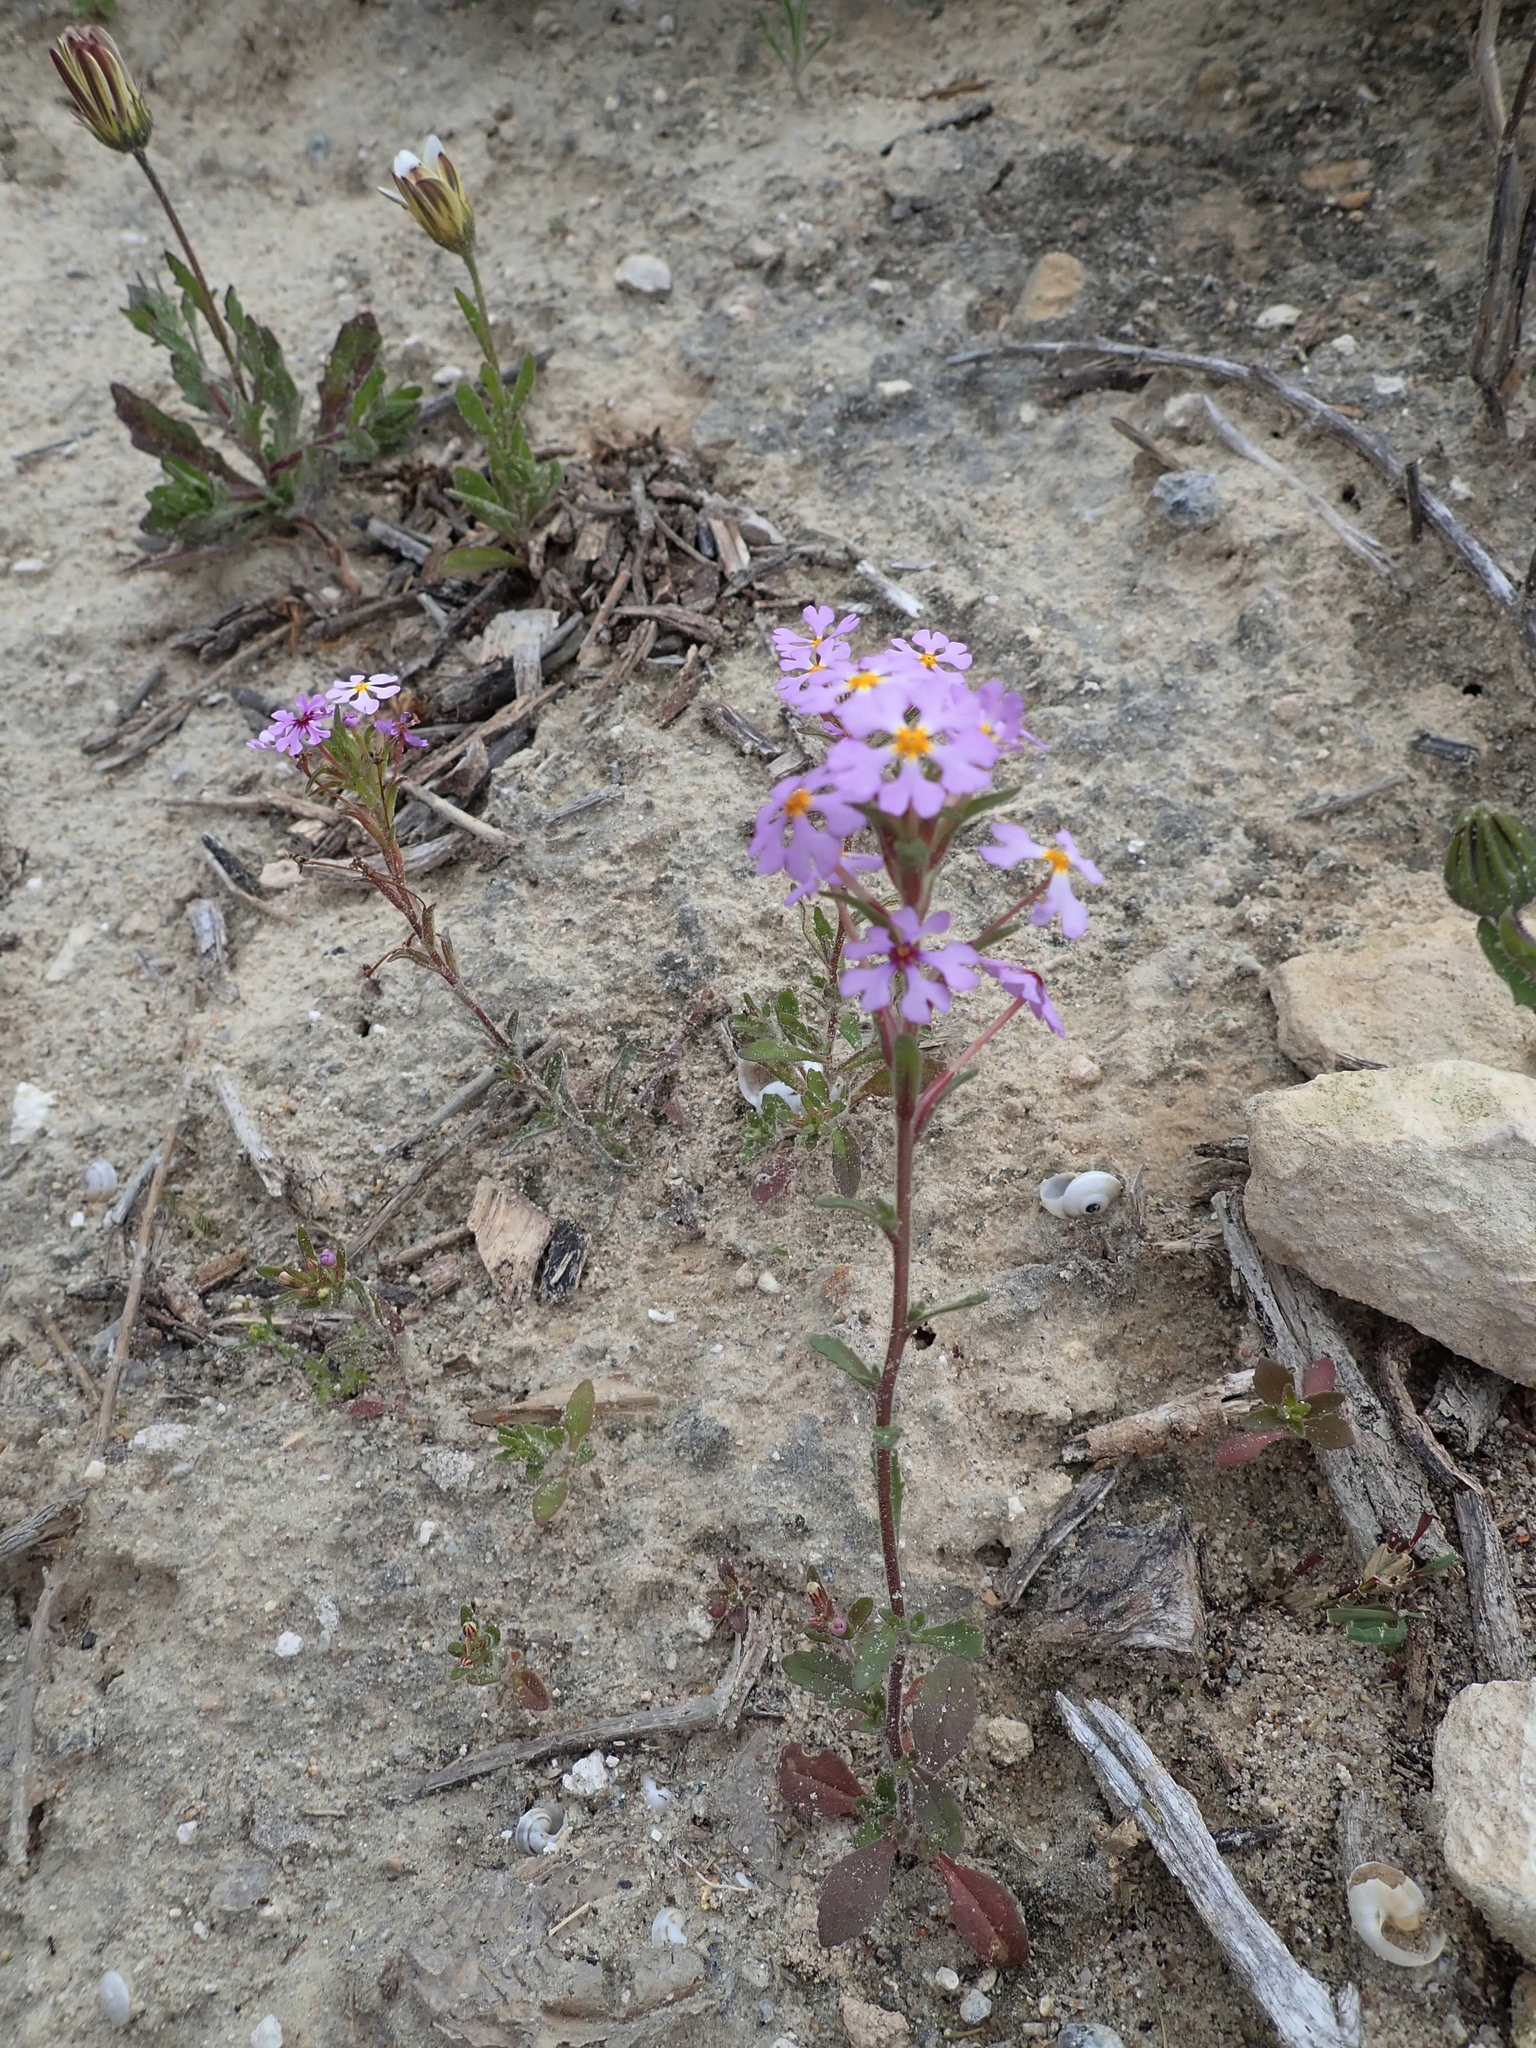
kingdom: Plantae
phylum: Tracheophyta
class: Magnoliopsida
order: Lamiales
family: Scrophulariaceae
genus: Zaluzianskya
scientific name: Zaluzianskya villosa
